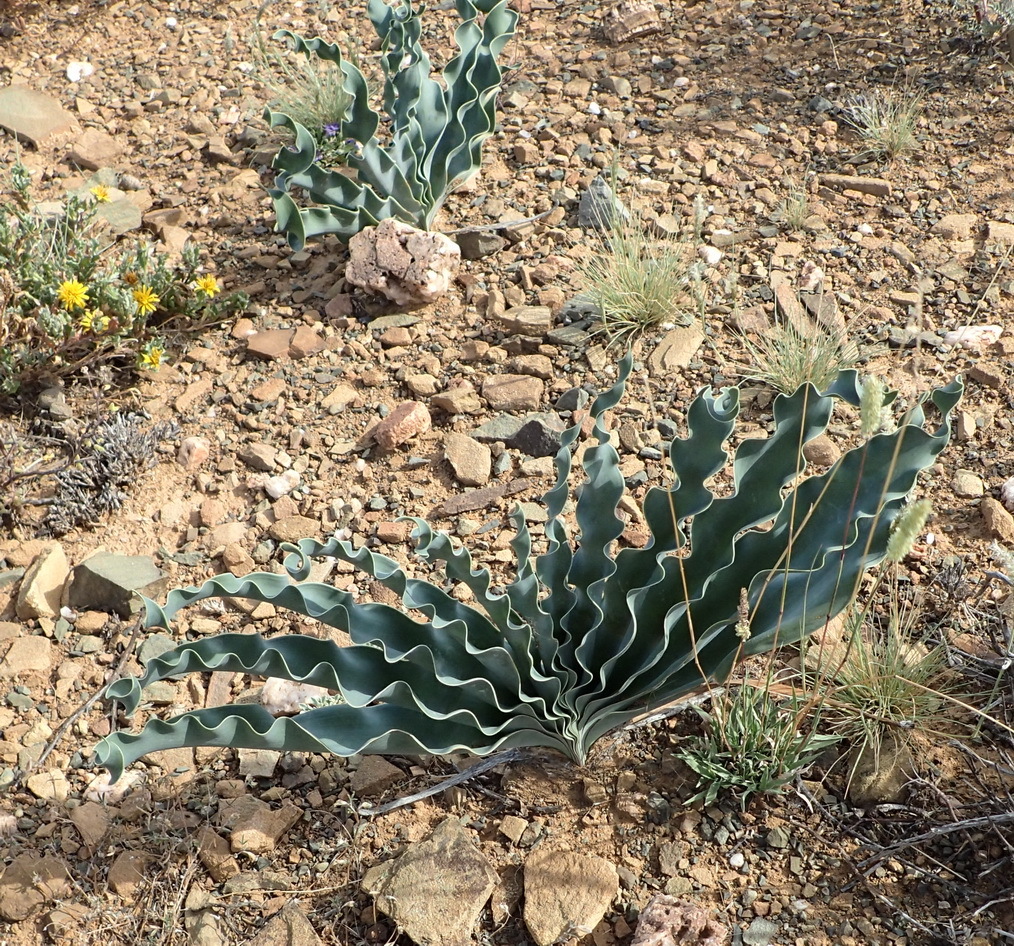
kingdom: Plantae
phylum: Tracheophyta
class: Liliopsida
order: Asparagales
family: Amaryllidaceae
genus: Boophone
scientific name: Boophone disticha
